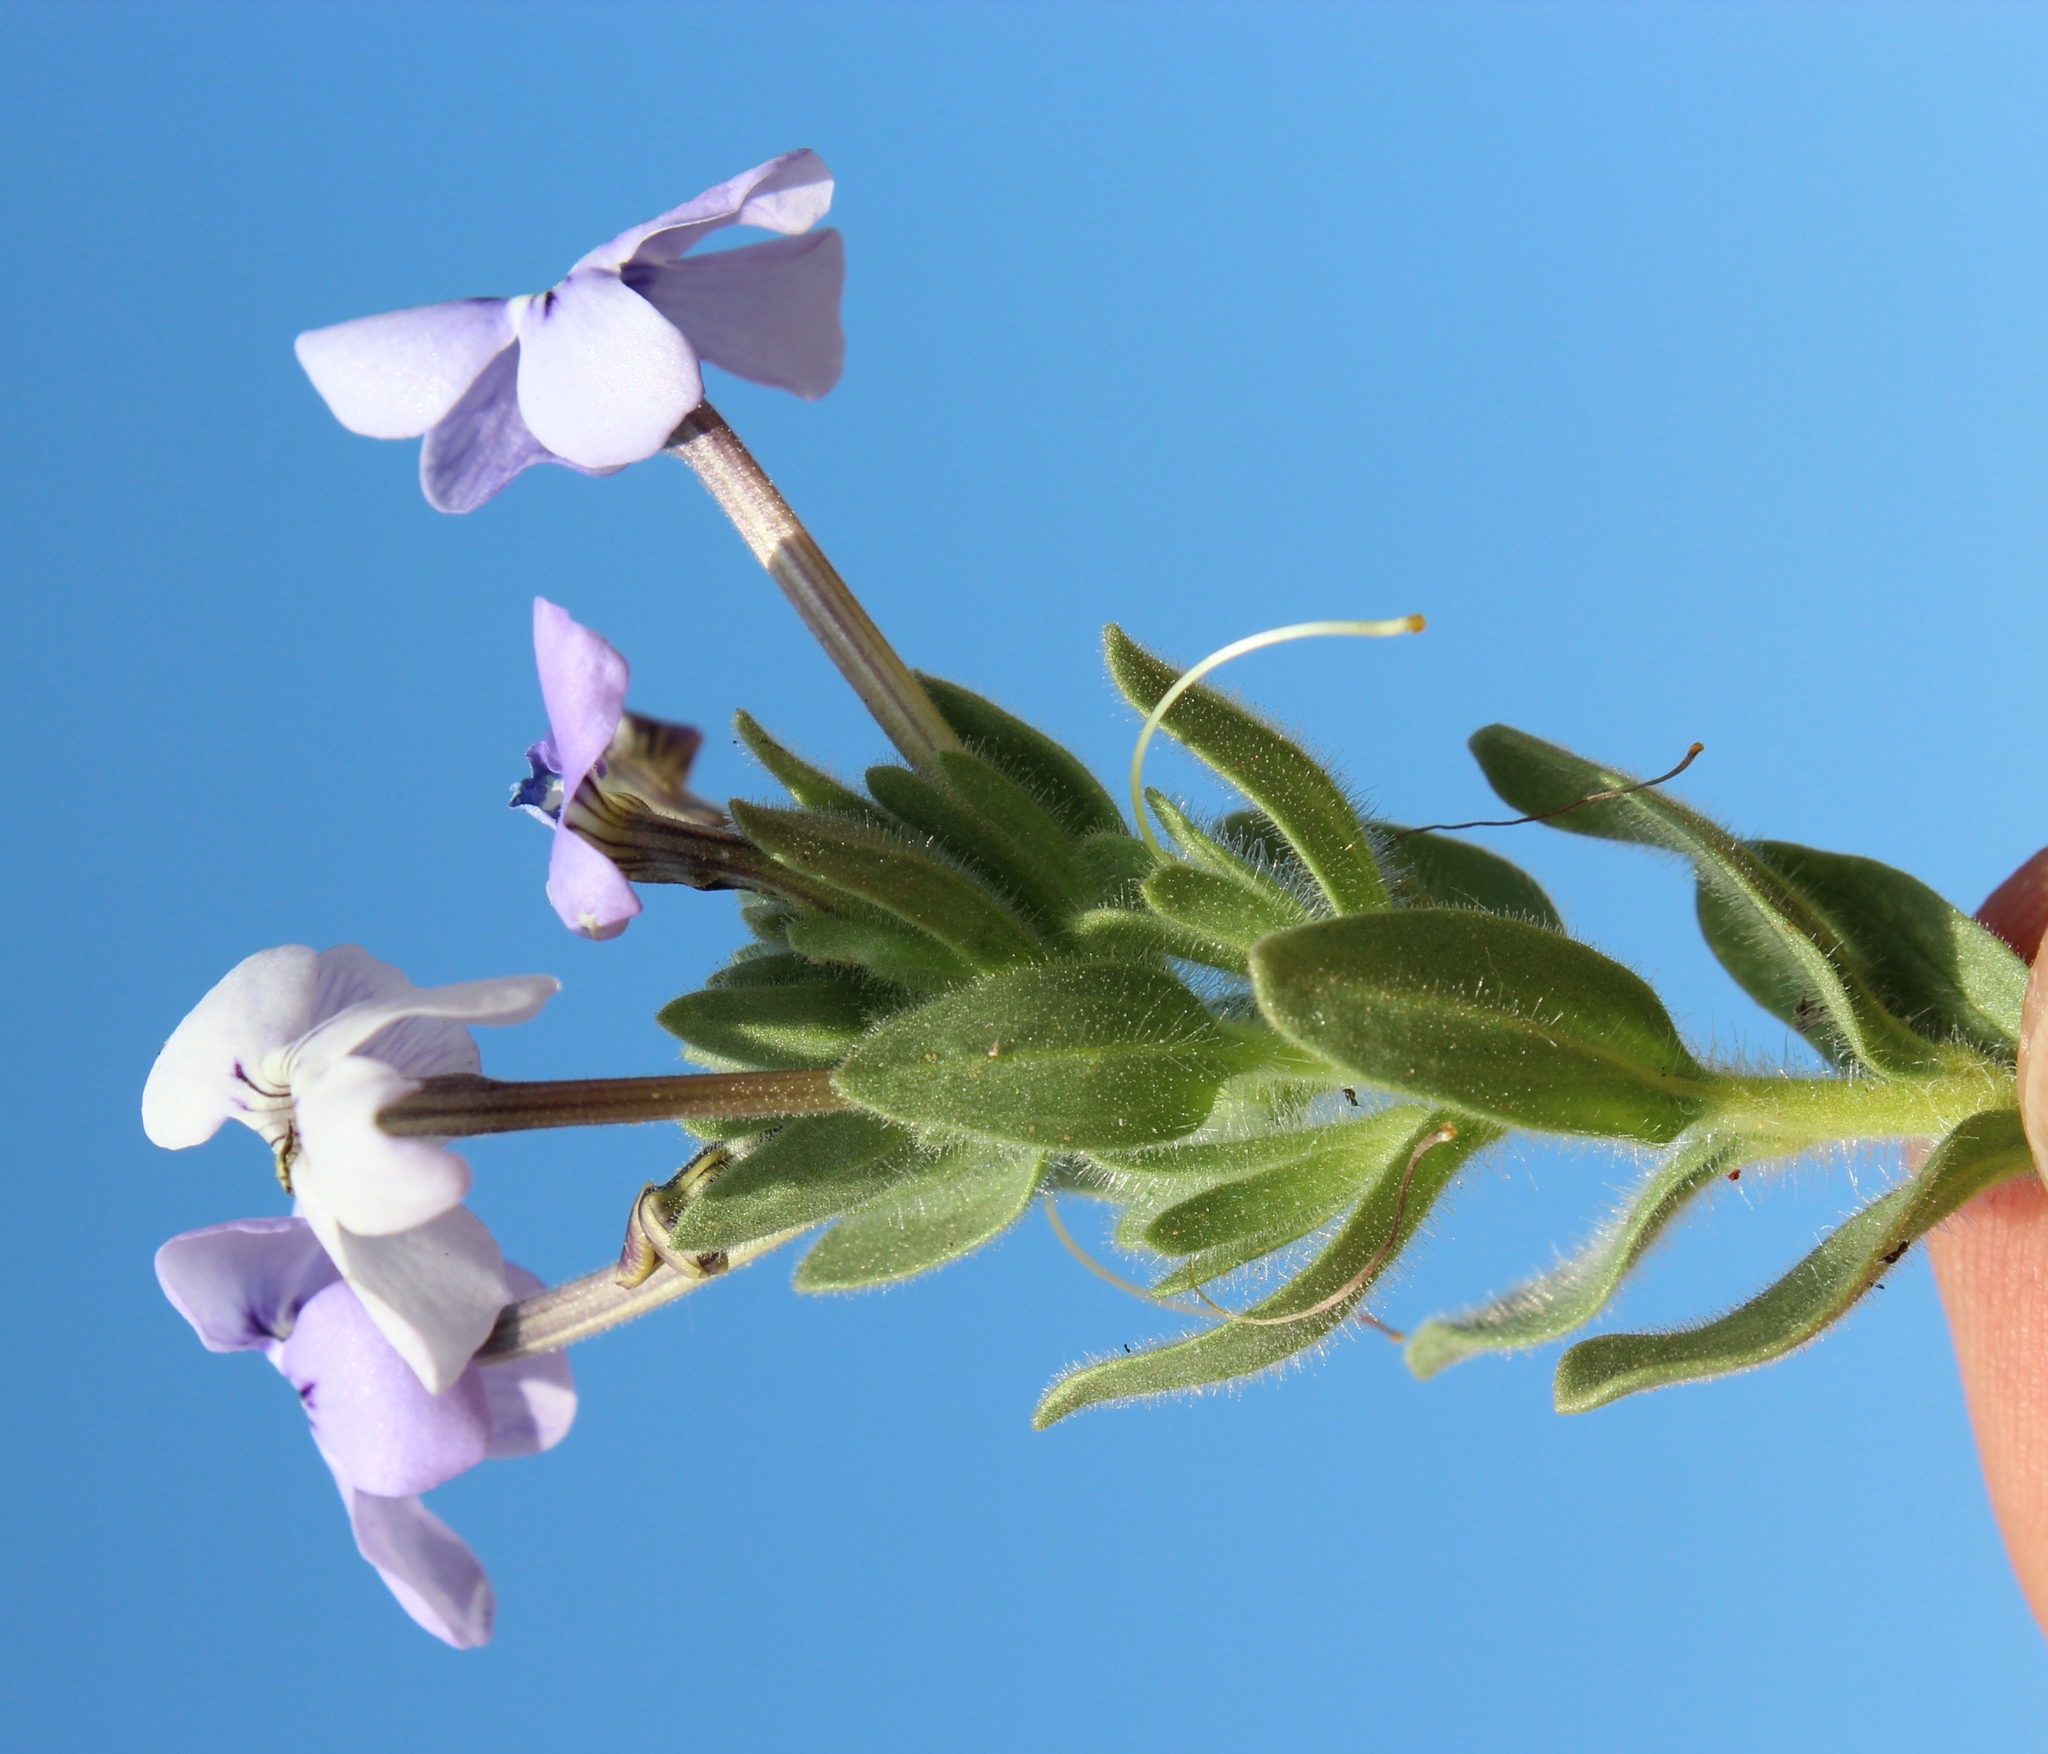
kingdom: Plantae
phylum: Tracheophyta
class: Magnoliopsida
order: Lamiales
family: Scrophulariaceae
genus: Jamesbrittenia
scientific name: Jamesbrittenia fruticosa
